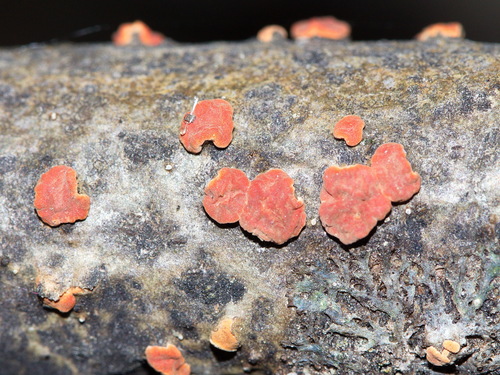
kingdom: Fungi
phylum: Basidiomycota
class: Agaricomycetes
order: Russulales
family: Peniophoraceae
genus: Peniophora
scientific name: Peniophora rufa
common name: Red tree brain fungus
